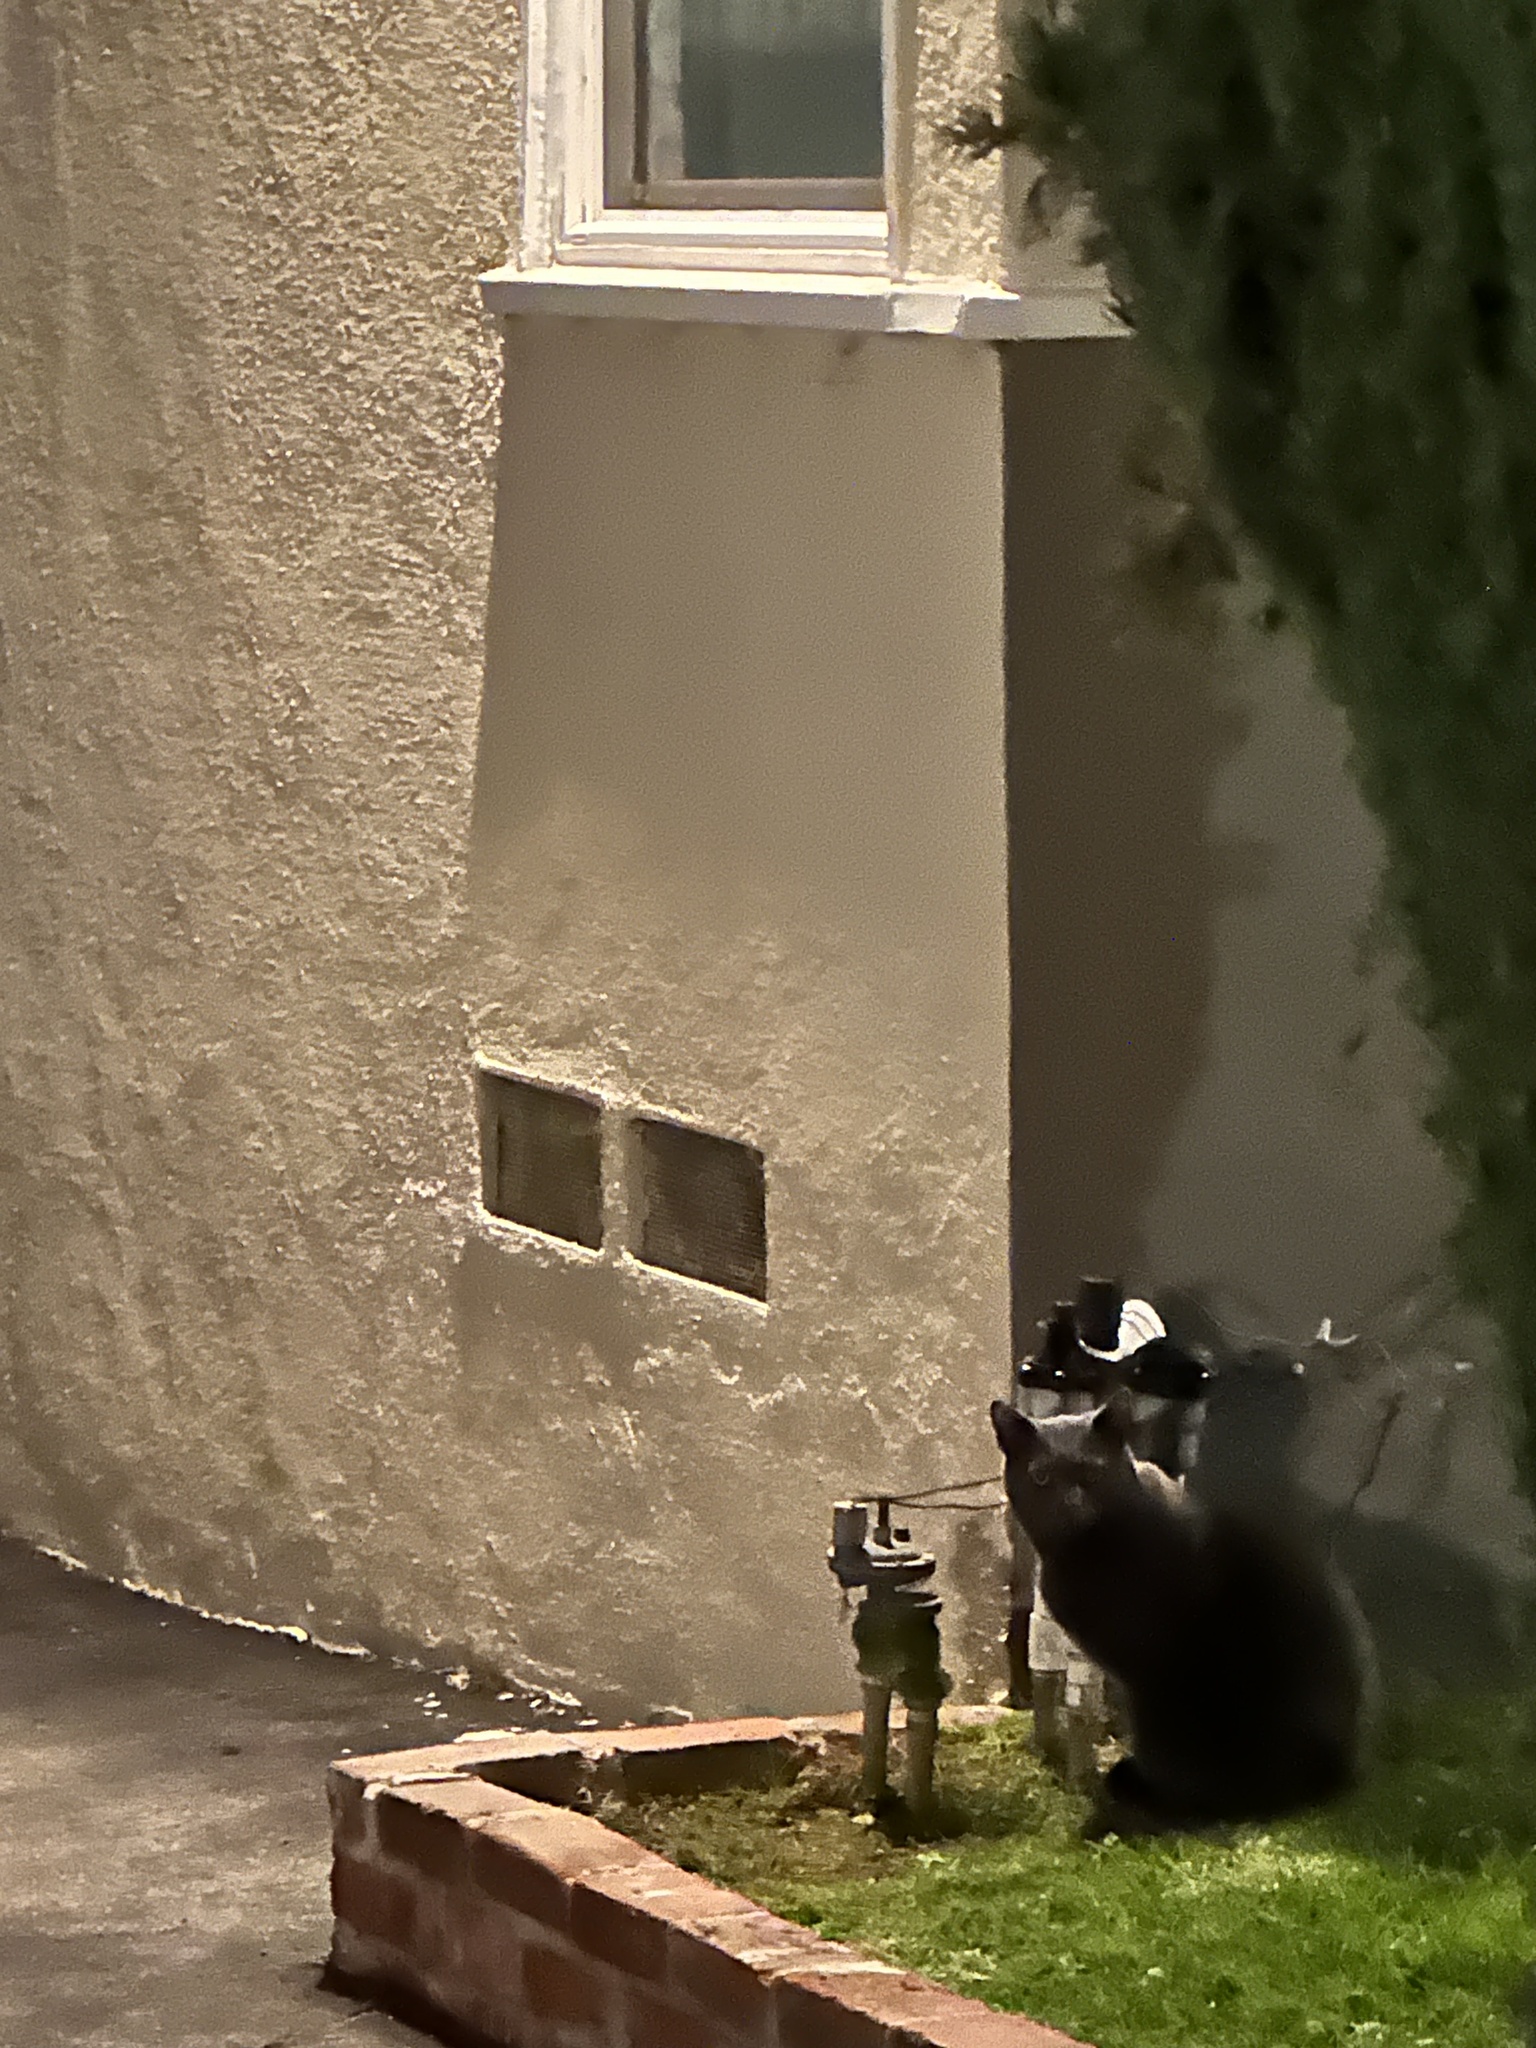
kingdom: Animalia
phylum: Chordata
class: Mammalia
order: Carnivora
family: Felidae
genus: Felis
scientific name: Felis catus
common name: Domestic cat
